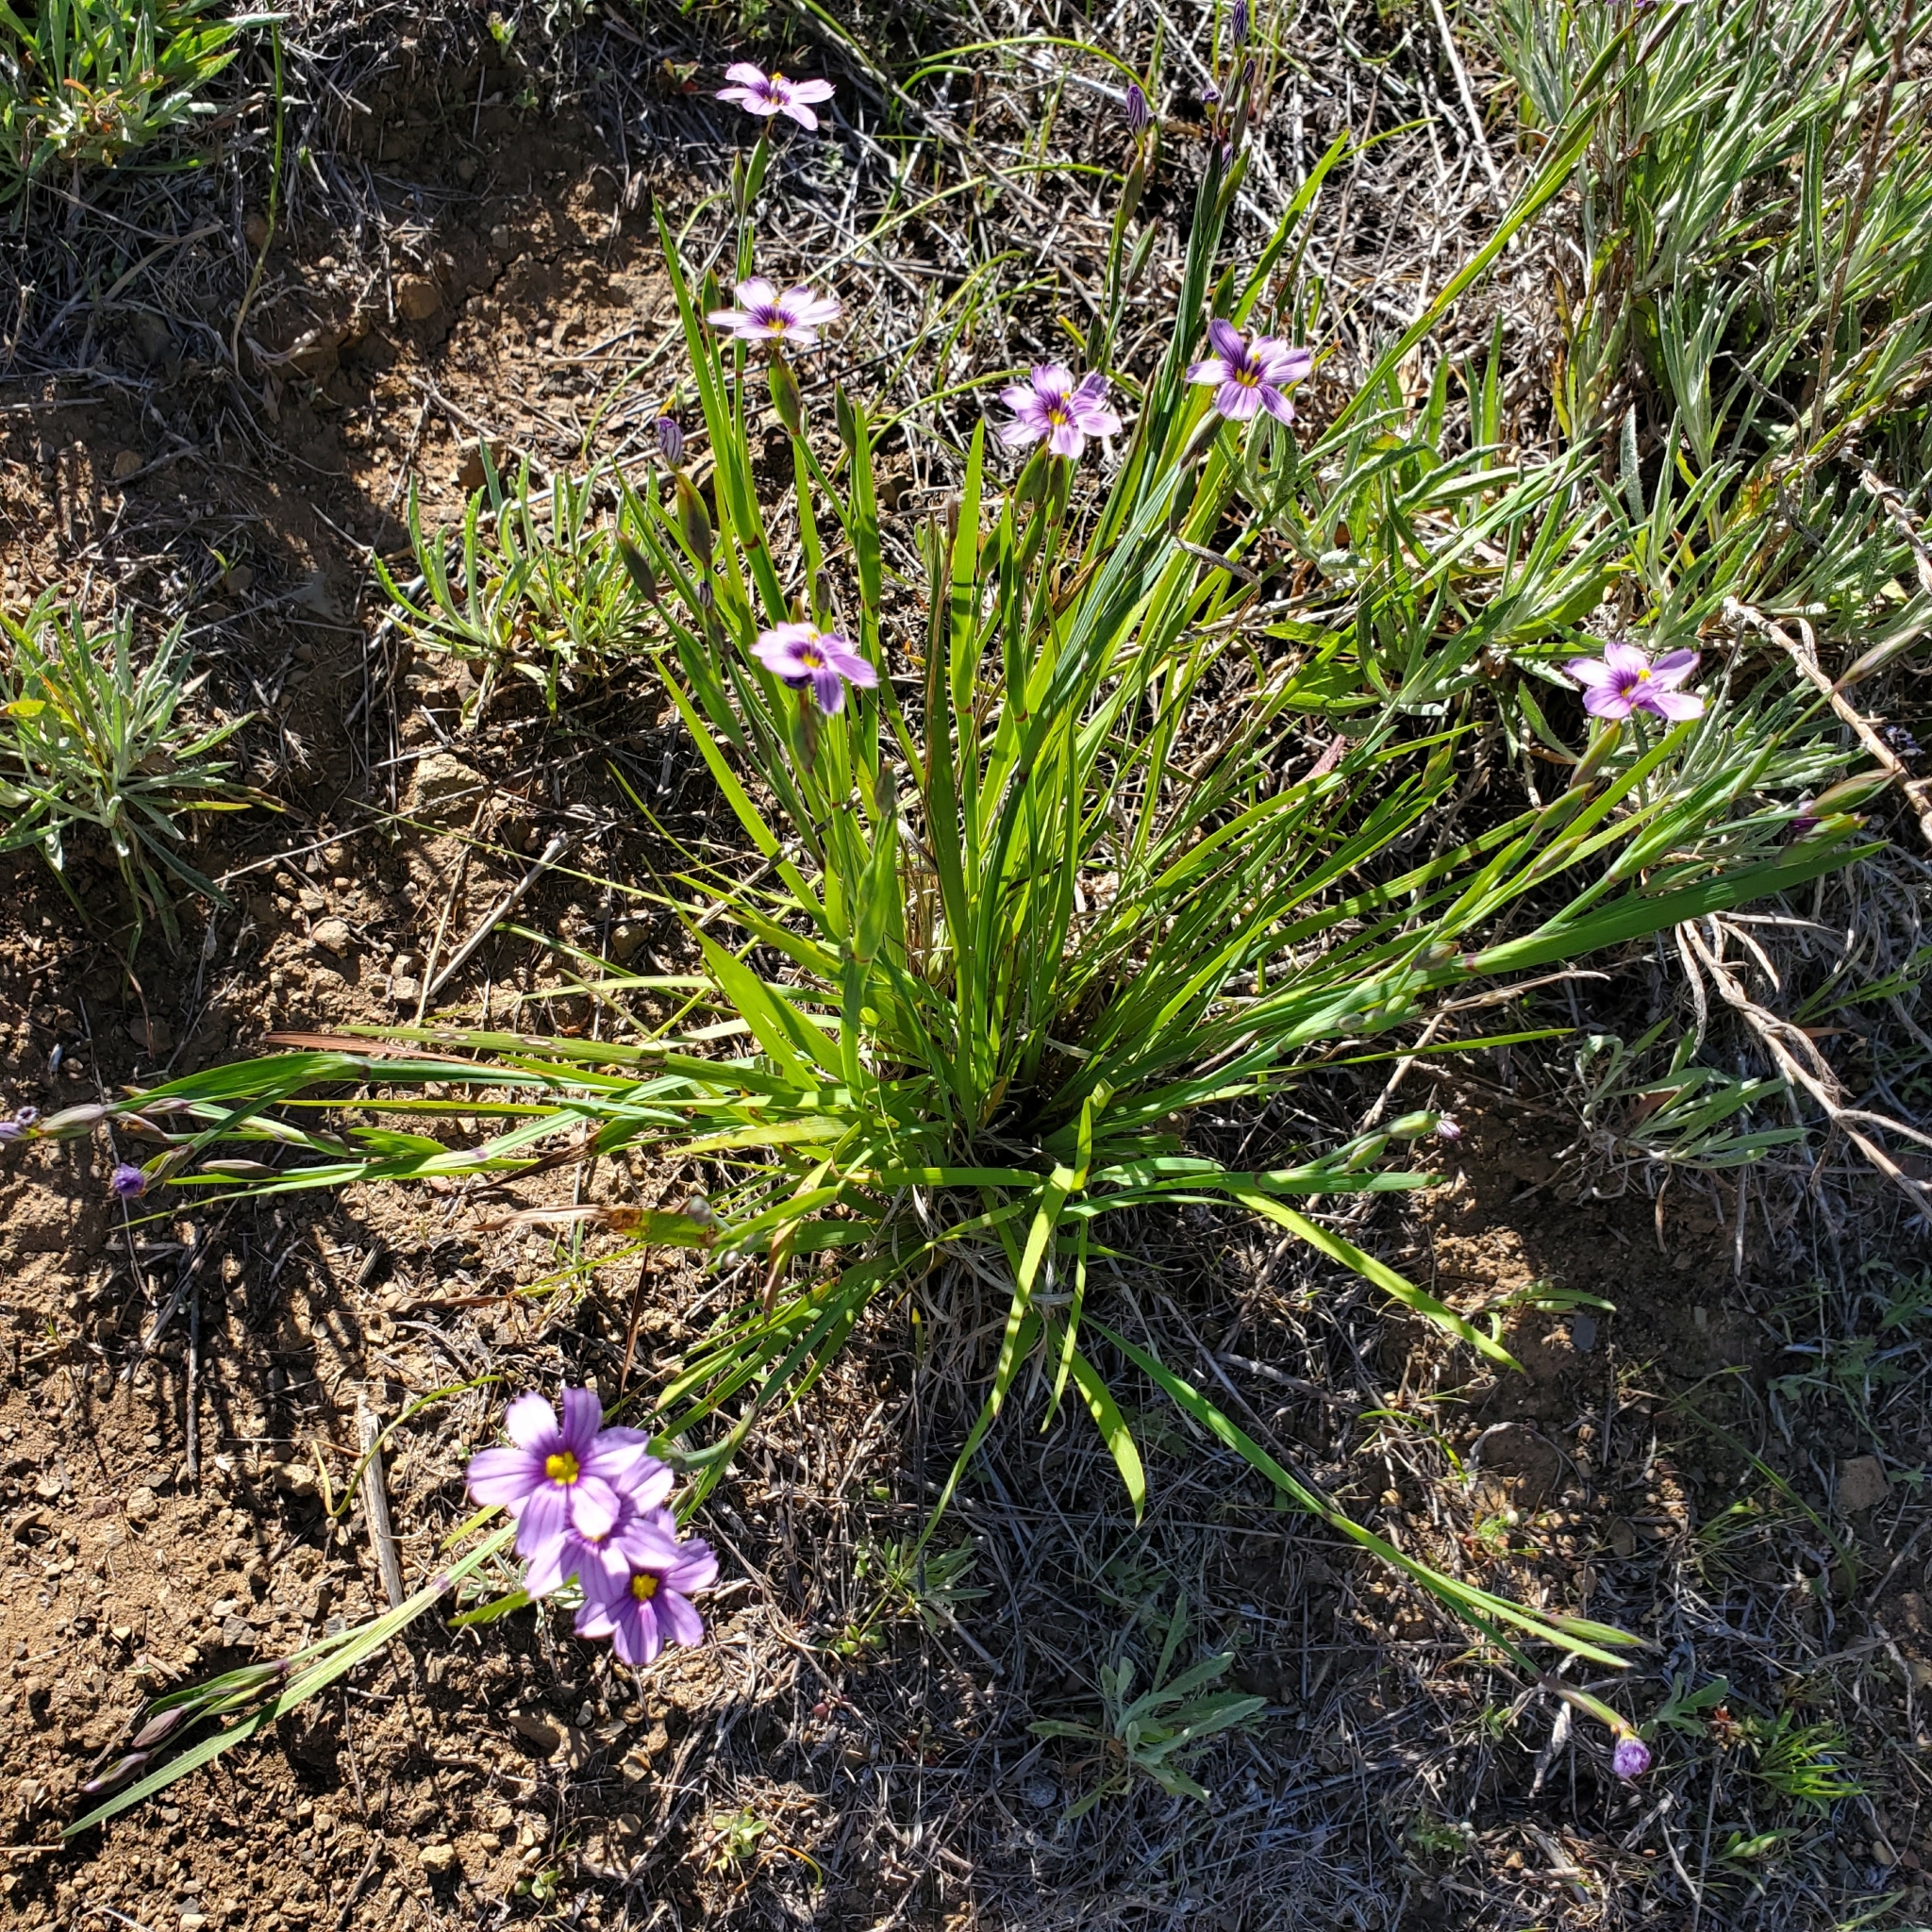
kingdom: Plantae
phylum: Tracheophyta
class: Liliopsida
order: Asparagales
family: Iridaceae
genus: Sisyrinchium
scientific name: Sisyrinchium bellum
